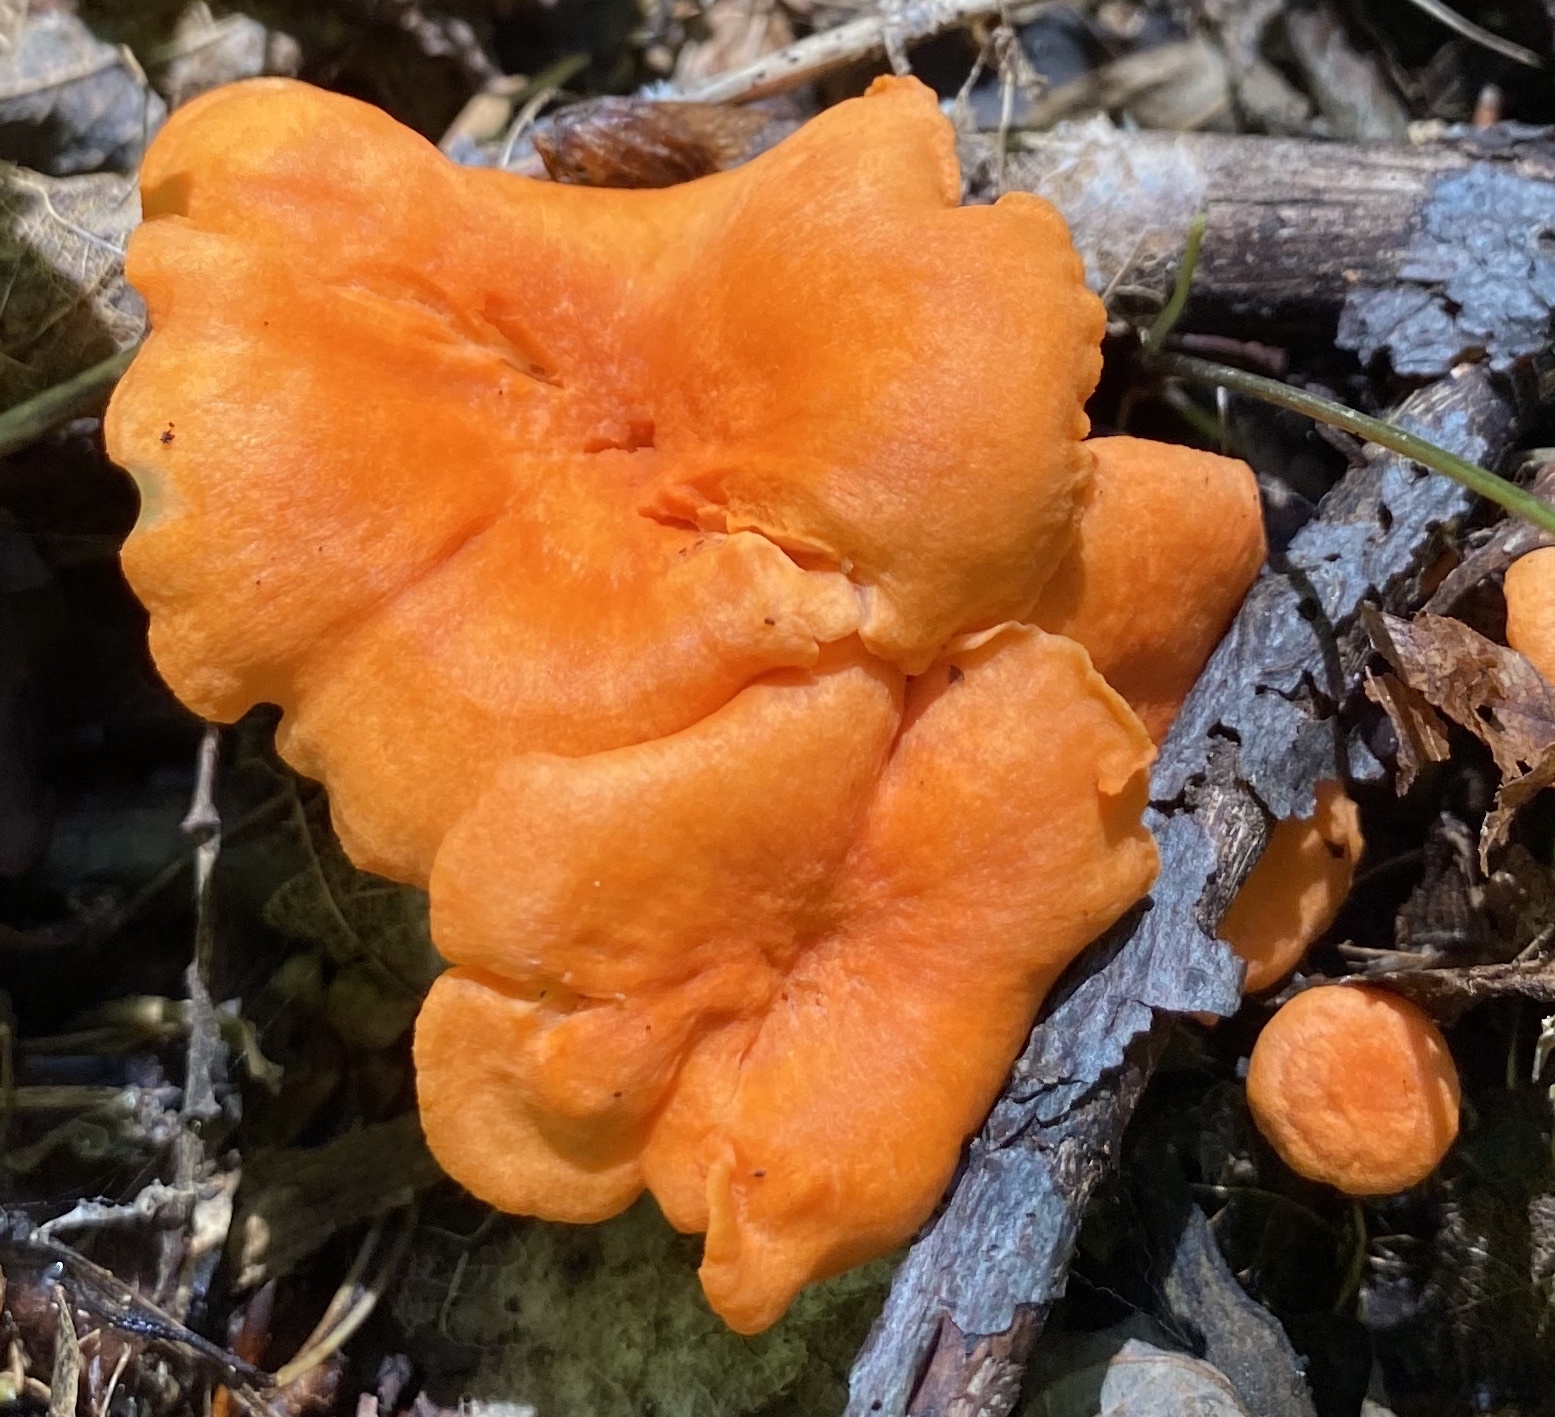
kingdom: Fungi
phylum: Basidiomycota
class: Agaricomycetes
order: Cantharellales
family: Hydnaceae
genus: Cantharellus
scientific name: Cantharellus cinnabarinus
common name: Cinnabar chanterelle
